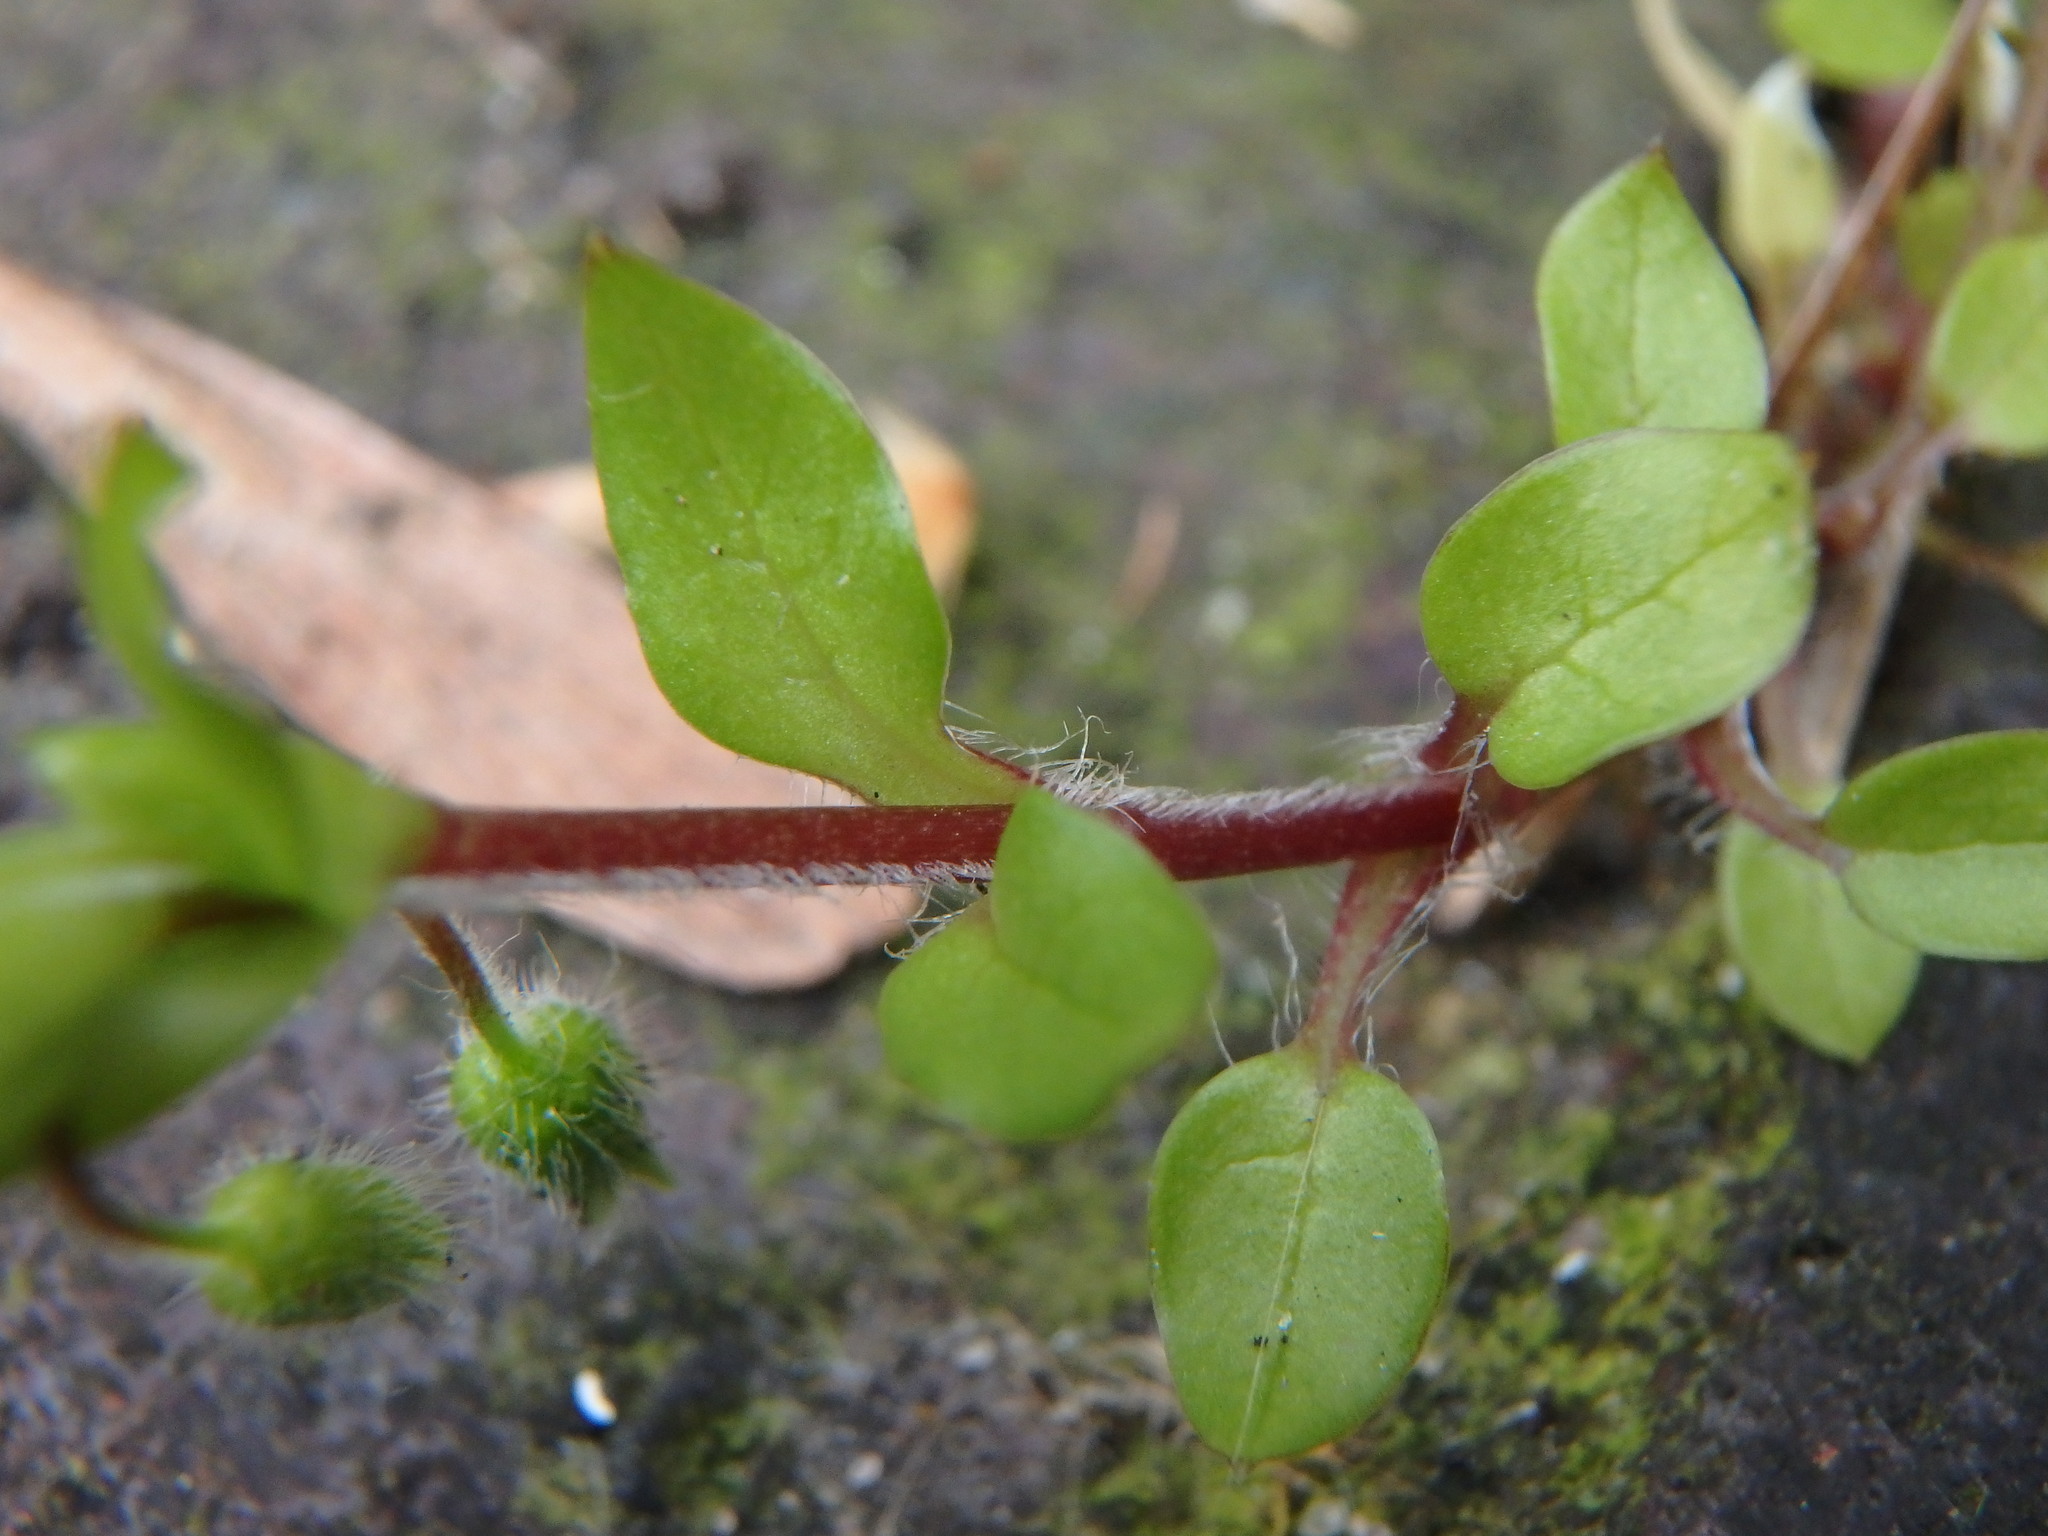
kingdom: Plantae
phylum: Tracheophyta
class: Magnoliopsida
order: Caryophyllales
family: Caryophyllaceae
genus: Stellaria
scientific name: Stellaria media
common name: Common chickweed
